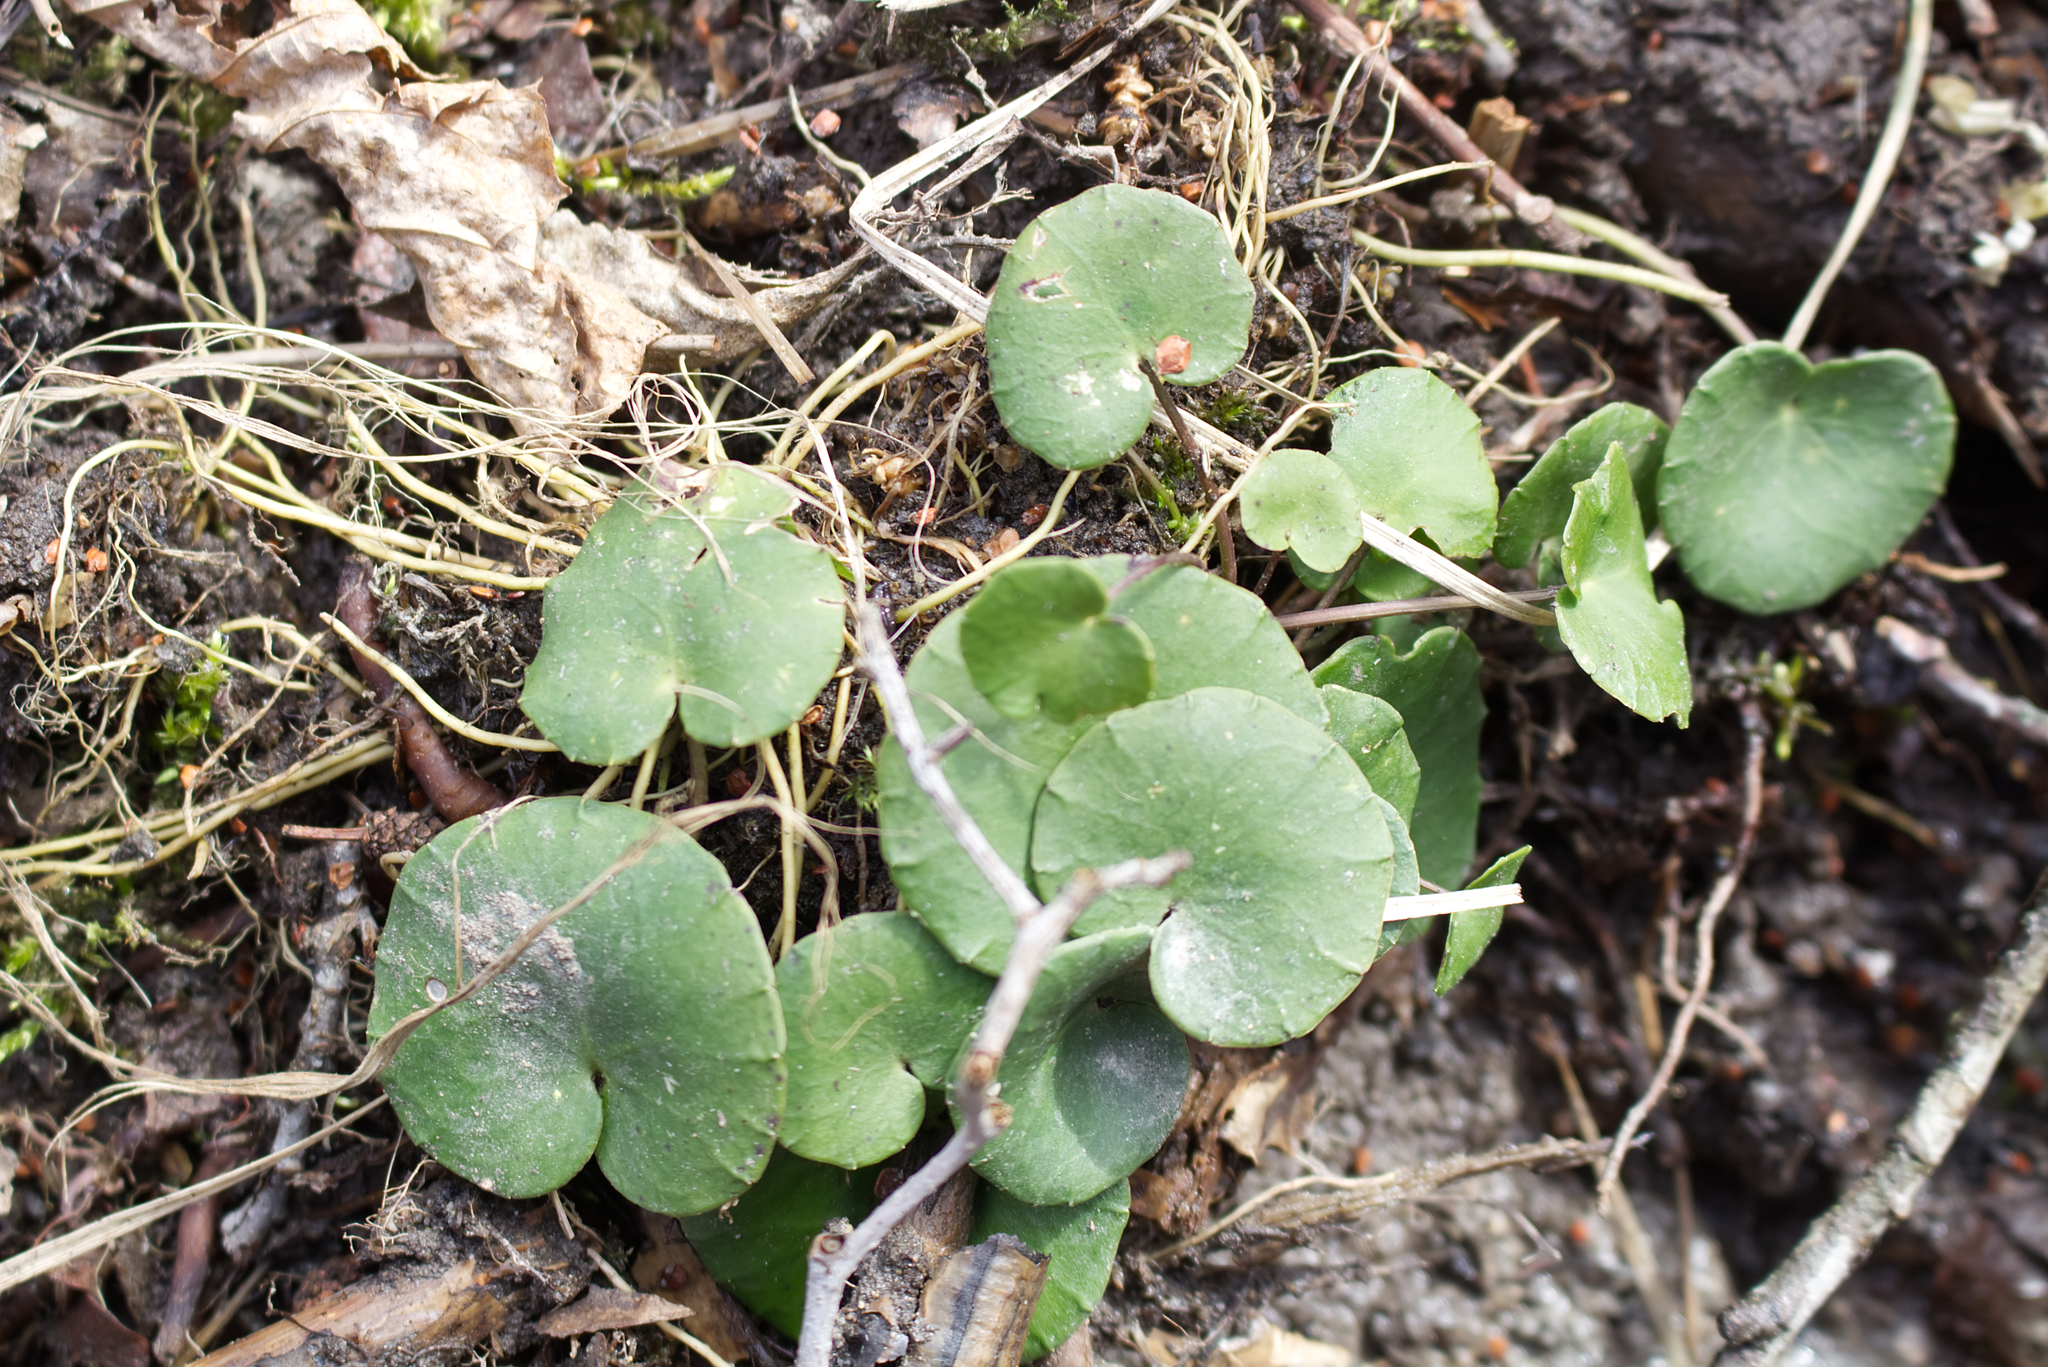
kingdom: Plantae
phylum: Tracheophyta
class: Magnoliopsida
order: Ericales
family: Primulaceae
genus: Soldanella
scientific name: Soldanella montana
